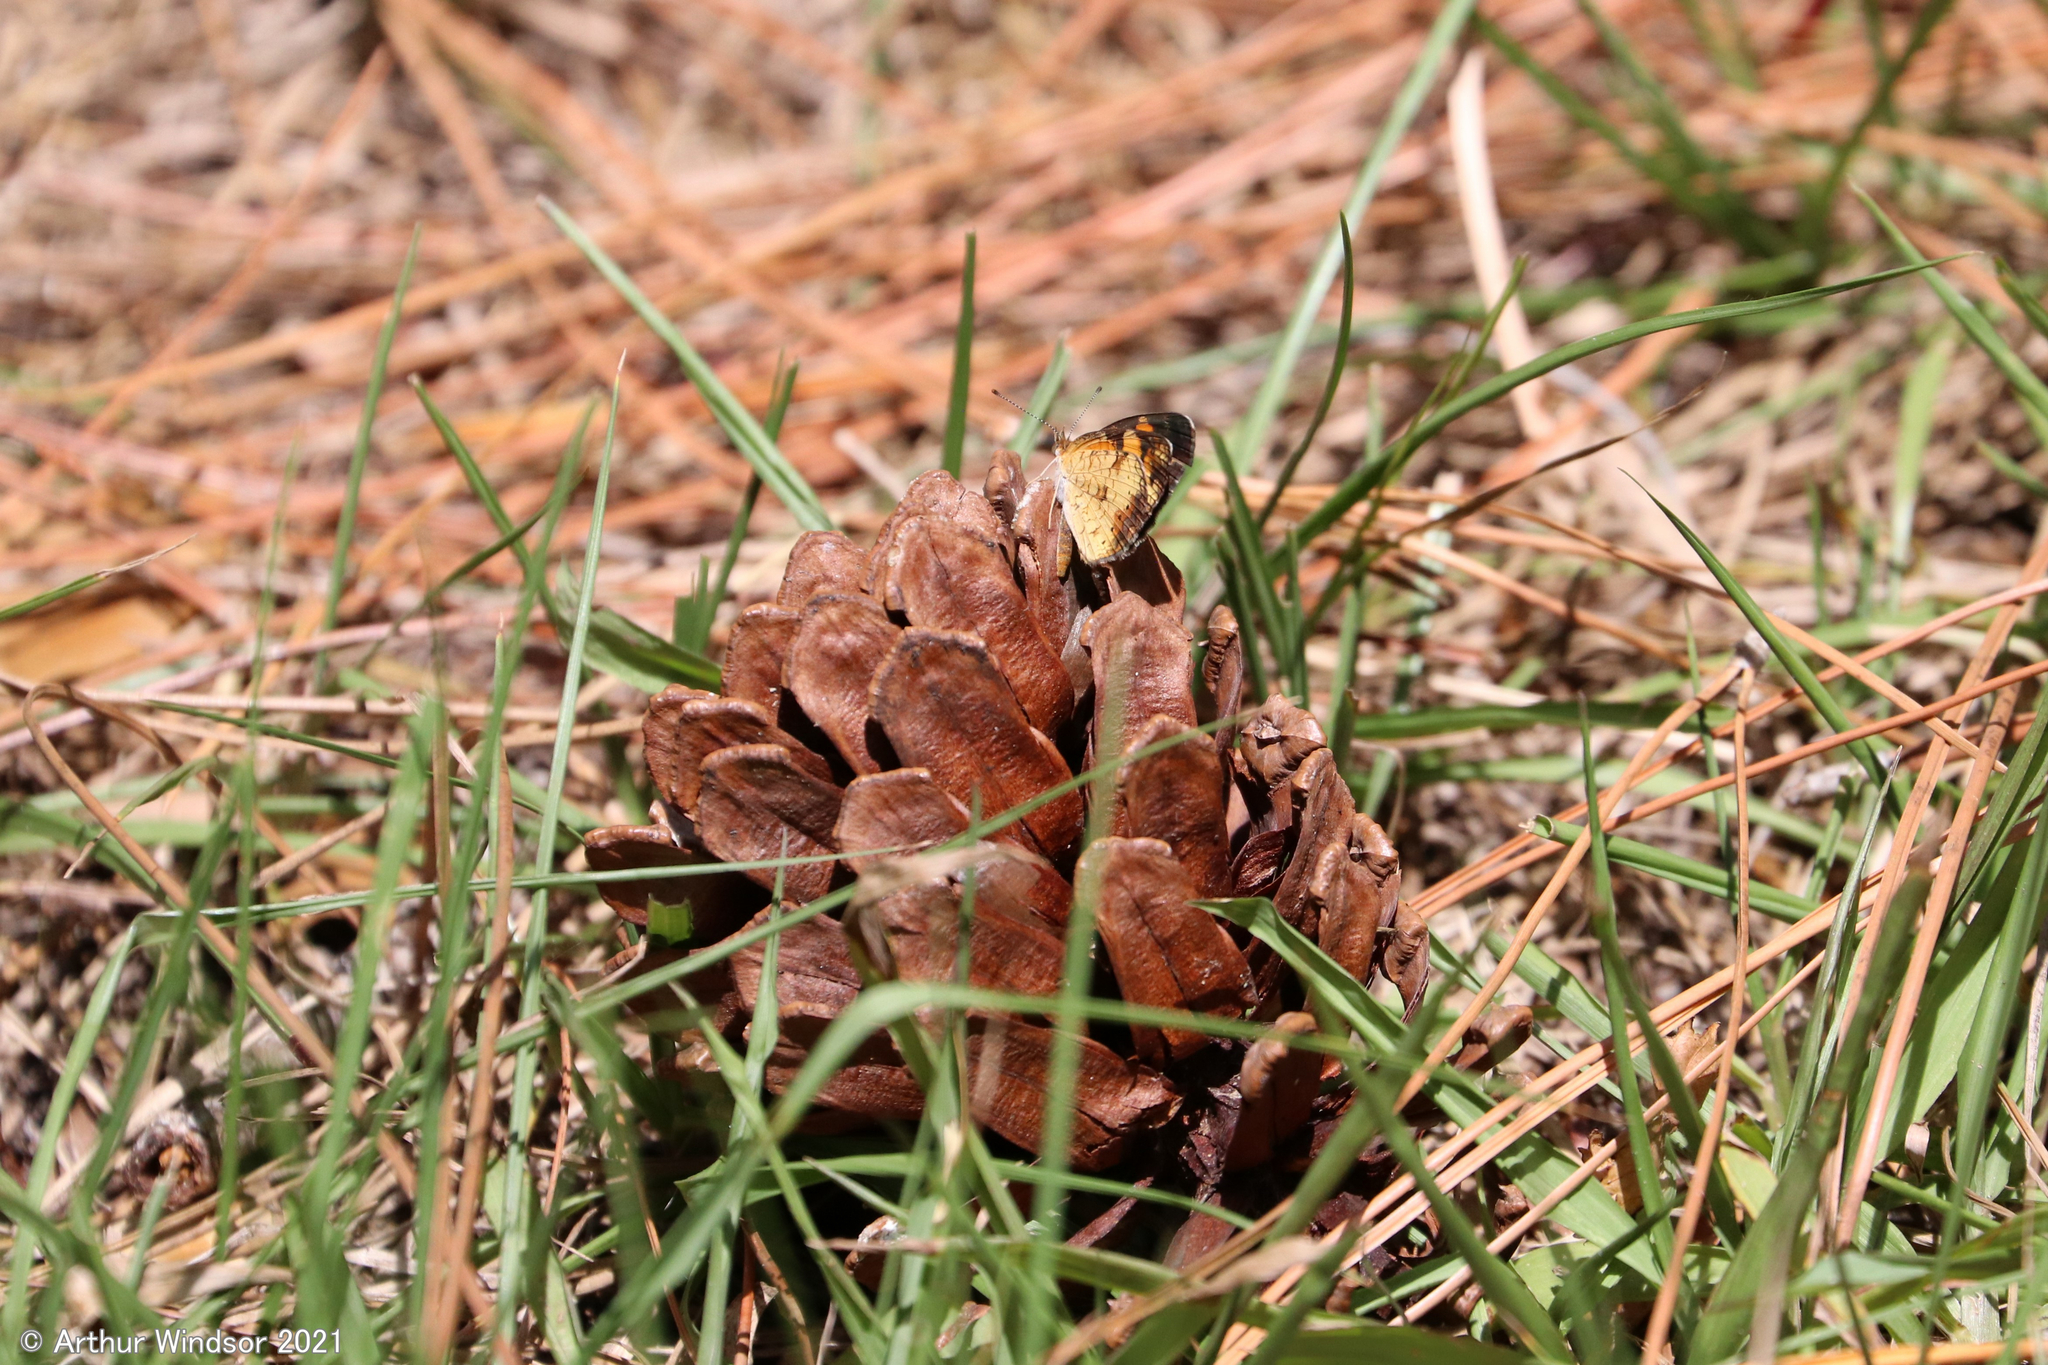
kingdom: Animalia
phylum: Arthropoda
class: Insecta
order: Lepidoptera
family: Nymphalidae
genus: Phyciodes
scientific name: Phyciodes tharos
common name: Pearl crescent
